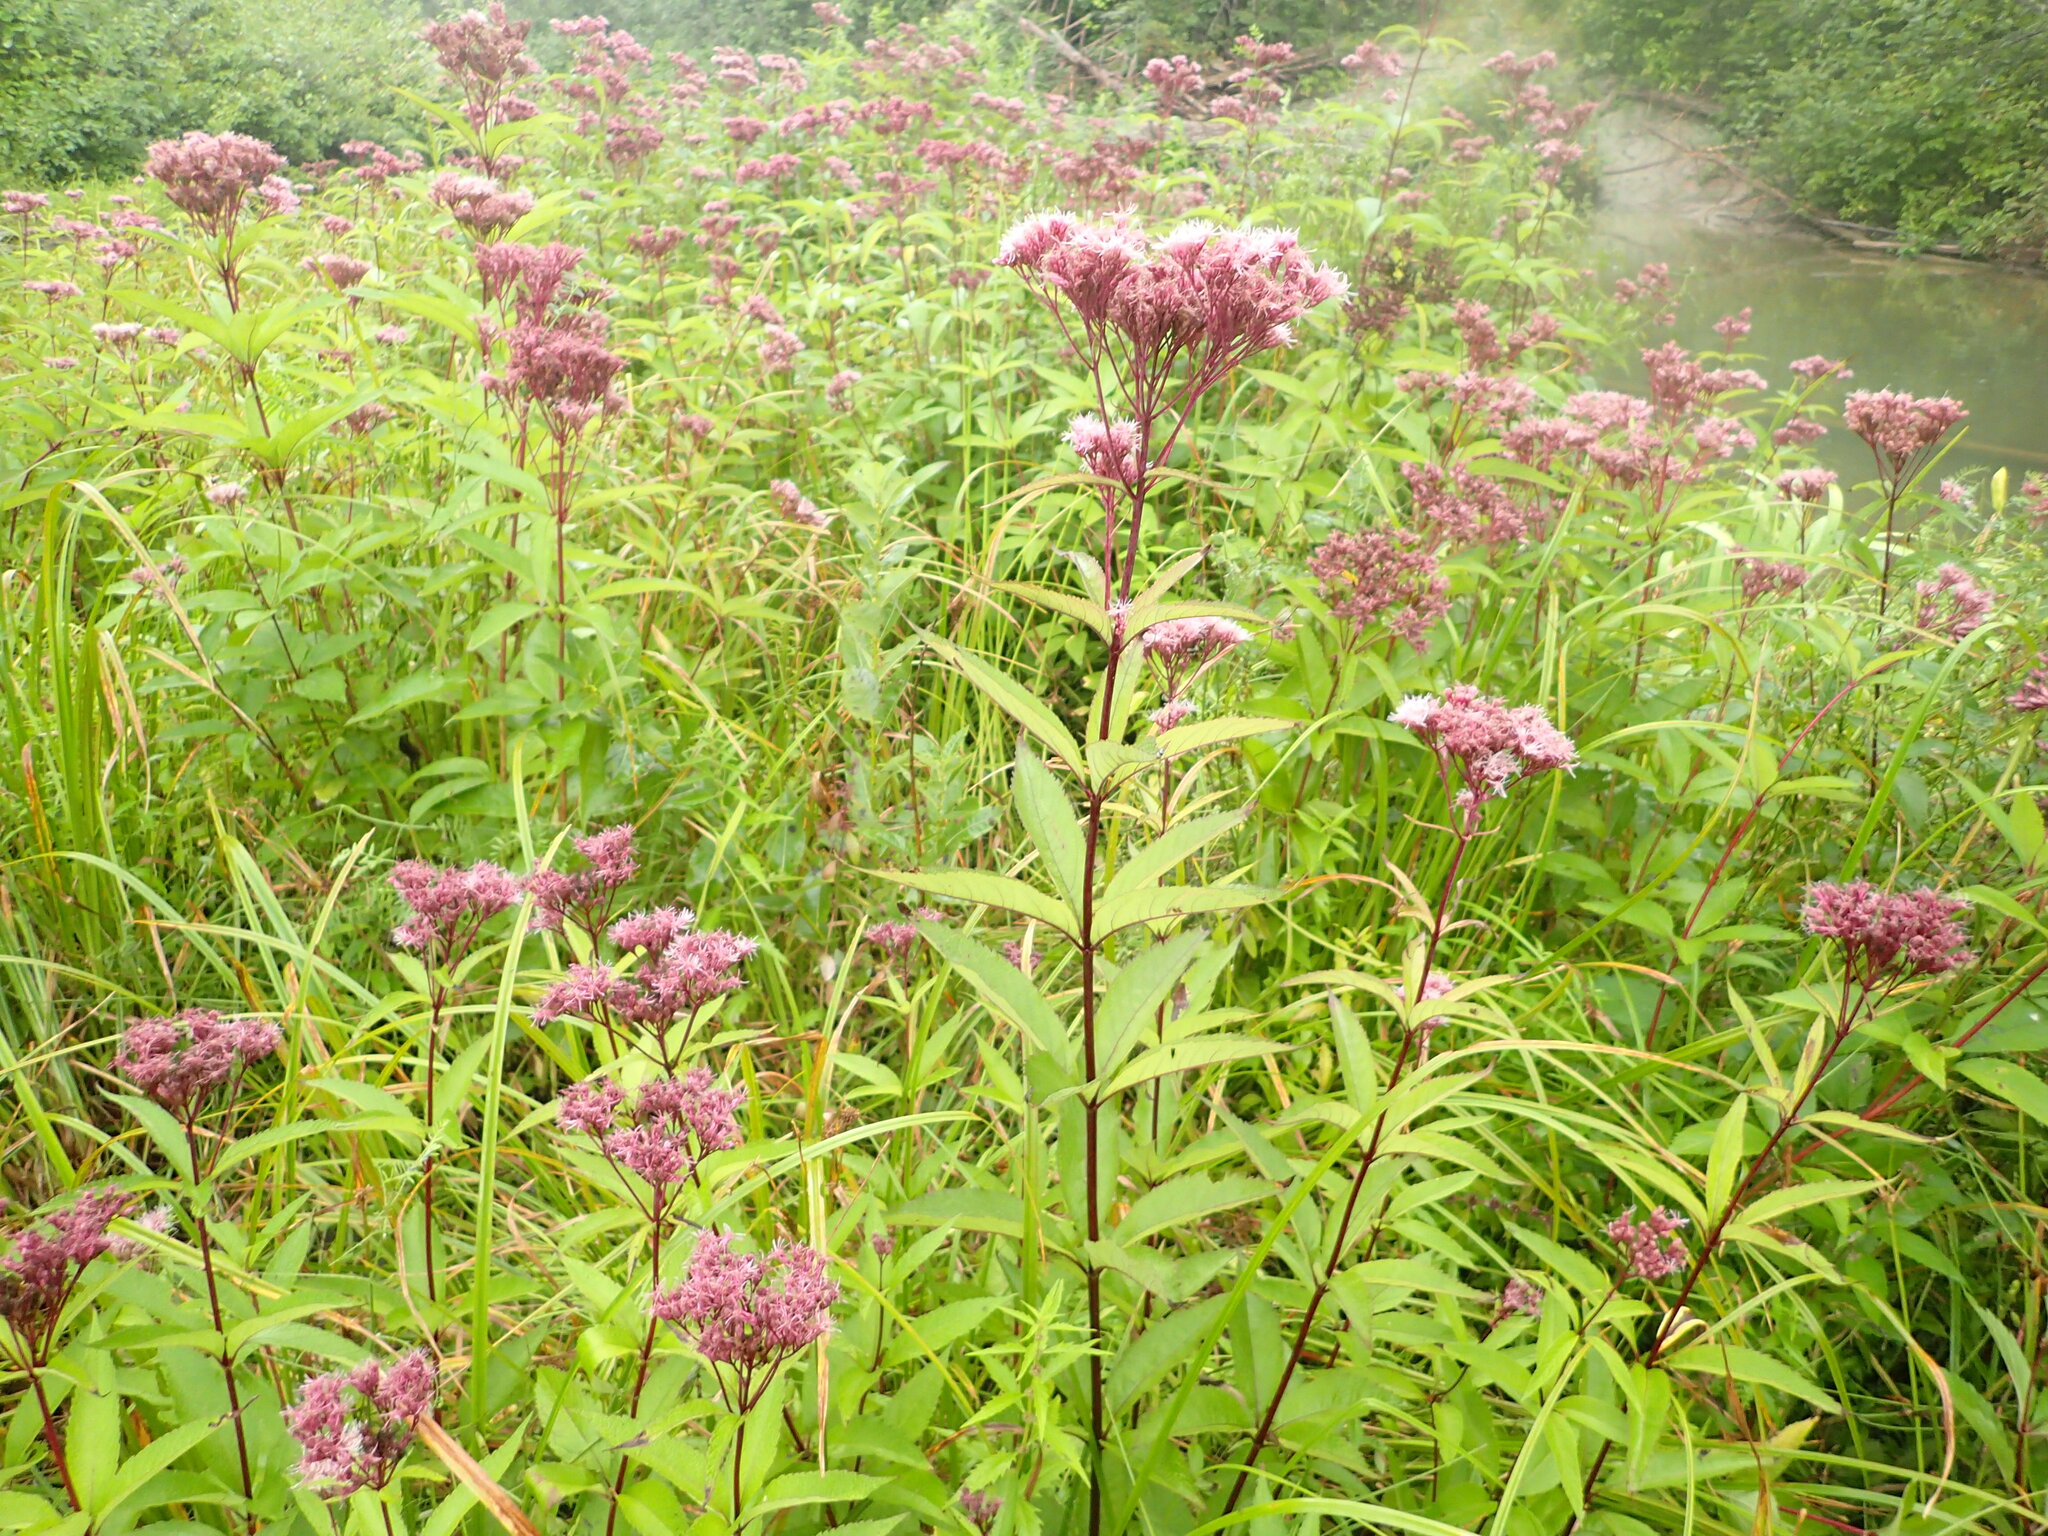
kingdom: Plantae
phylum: Tracheophyta
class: Magnoliopsida
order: Asterales
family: Asteraceae
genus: Eutrochium
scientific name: Eutrochium maculatum
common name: Spotted joe pye weed
